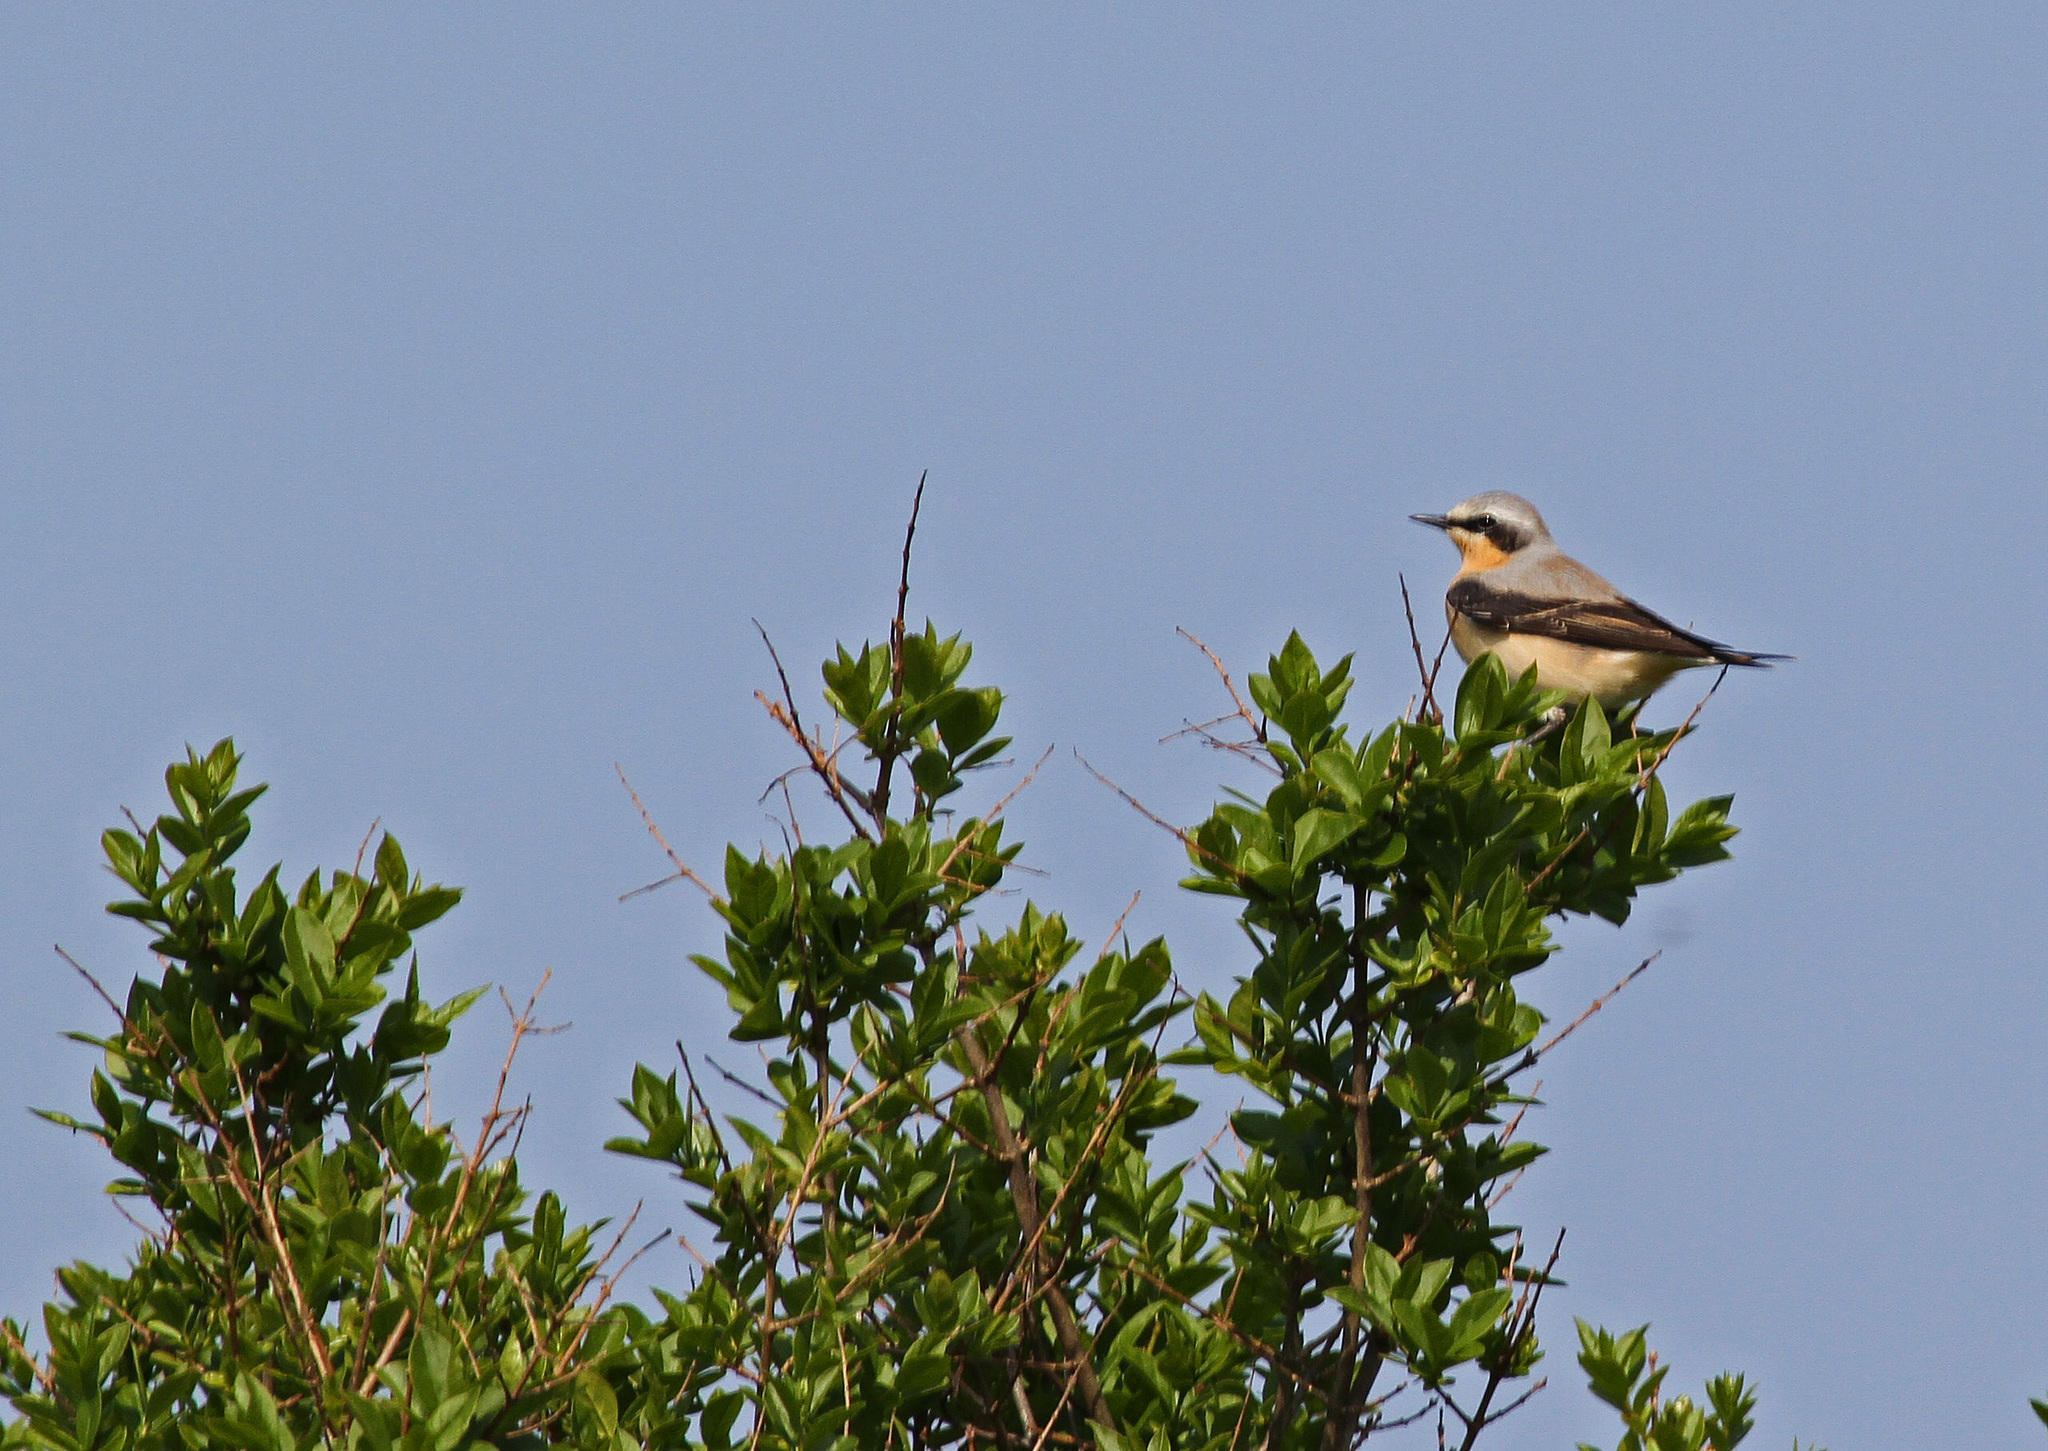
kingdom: Animalia
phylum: Chordata
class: Aves
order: Passeriformes
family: Muscicapidae
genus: Oenanthe
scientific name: Oenanthe oenanthe
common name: Northern wheatear
